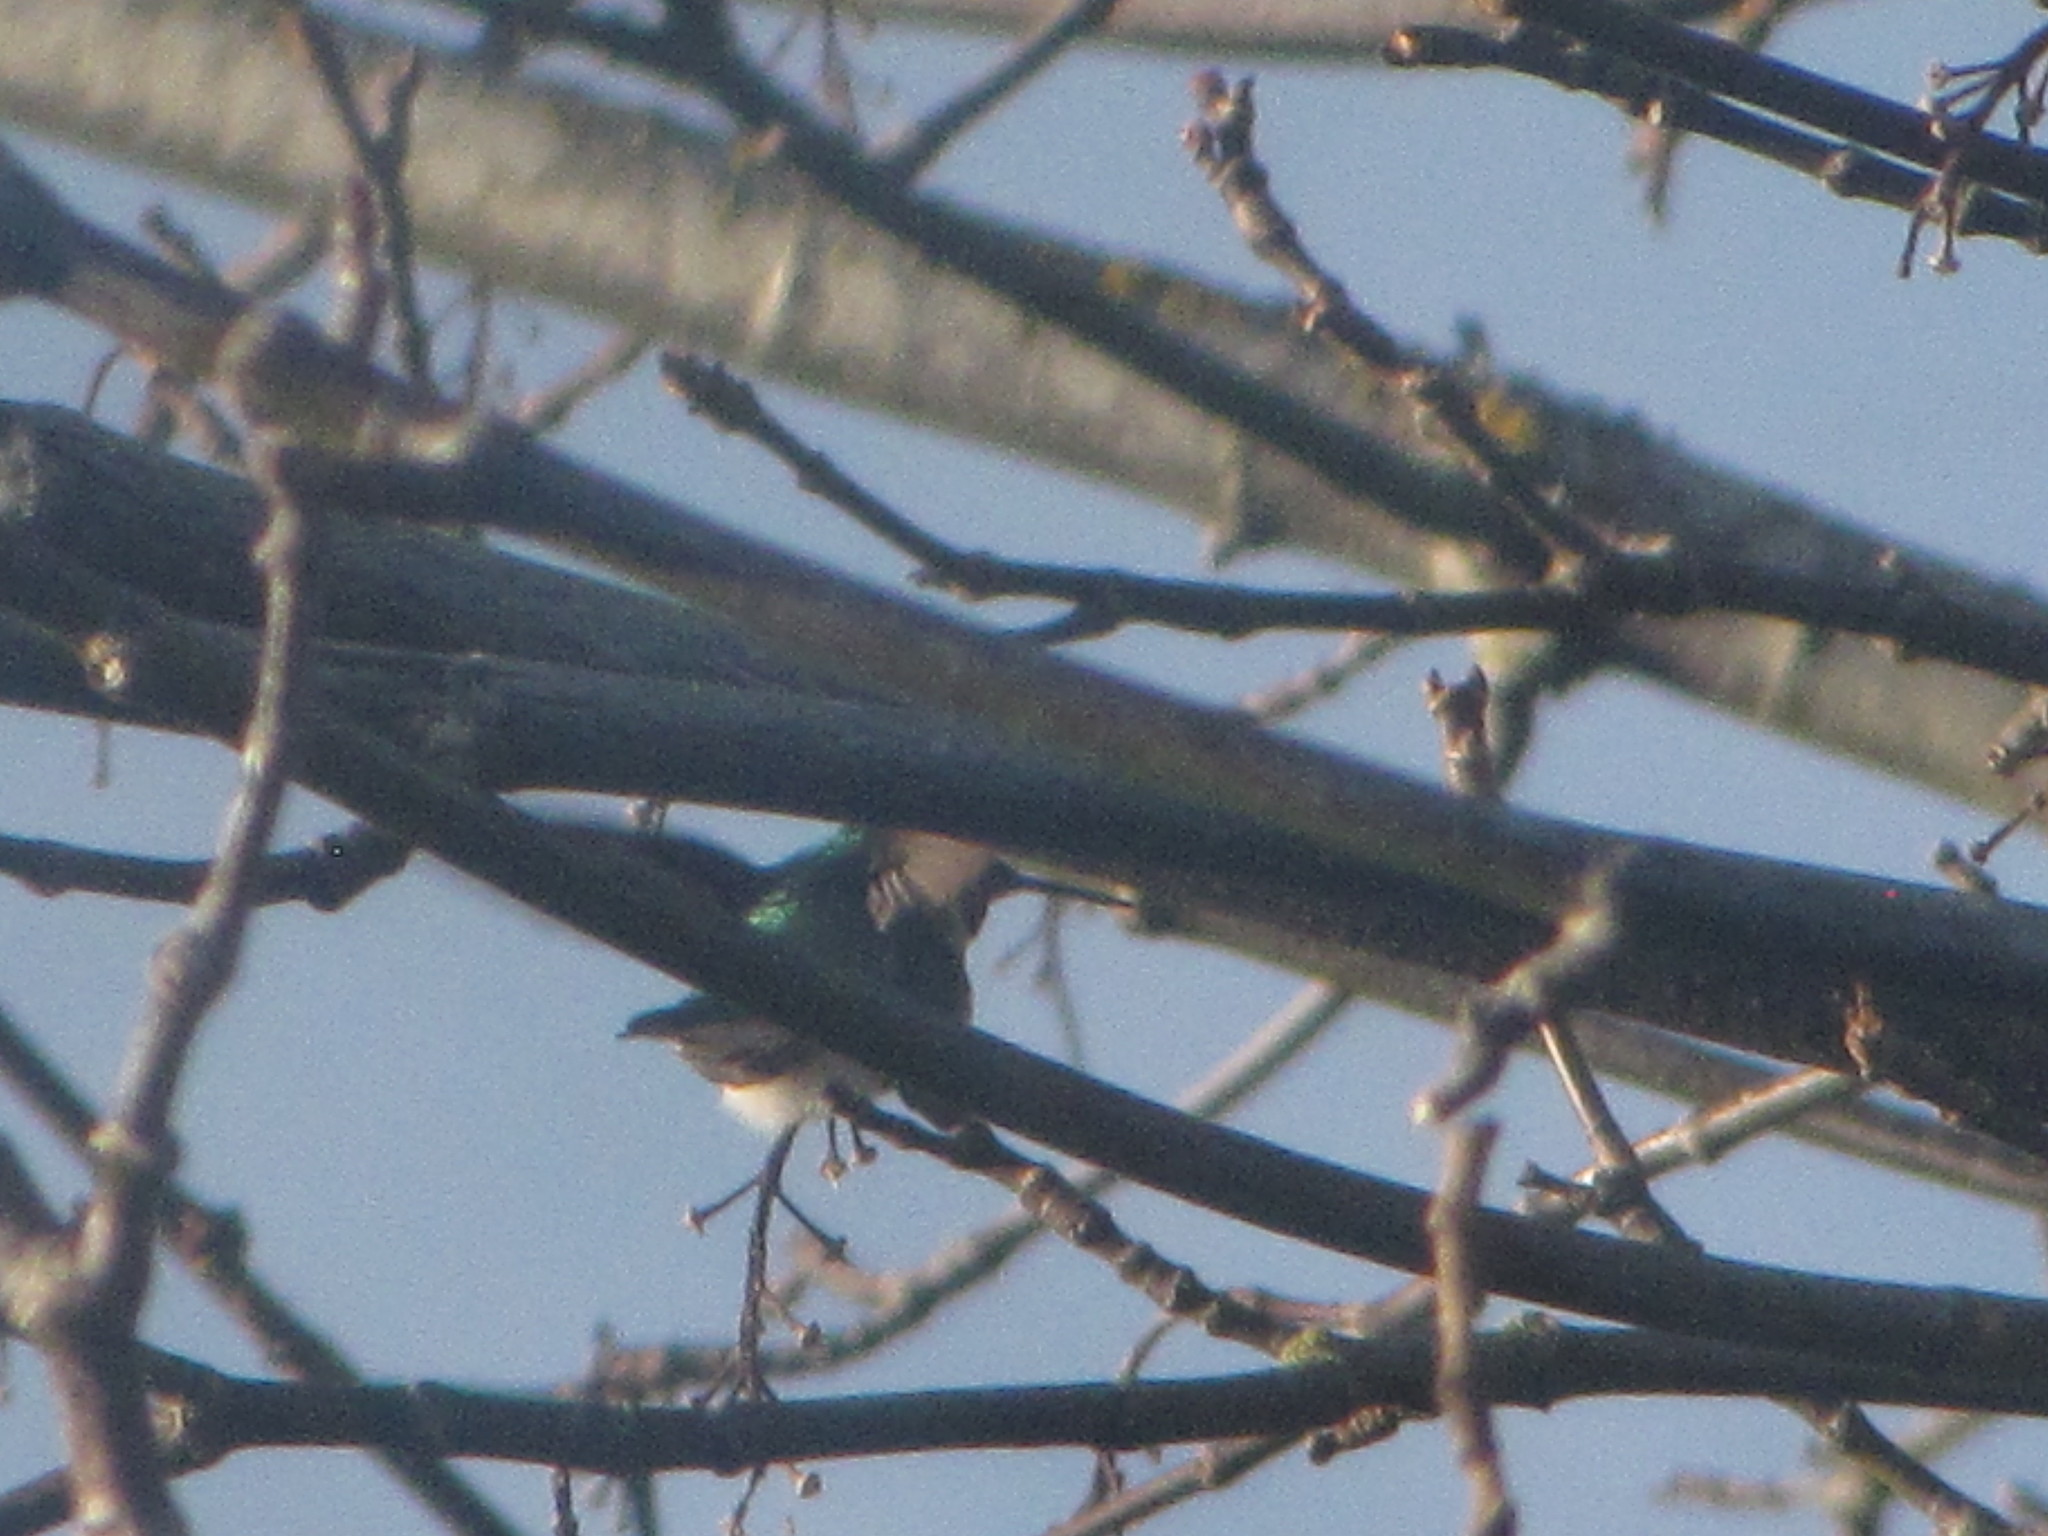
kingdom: Animalia
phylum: Chordata
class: Aves
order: Apodiformes
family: Trochilidae
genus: Calypte
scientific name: Calypte anna
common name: Anna's hummingbird
